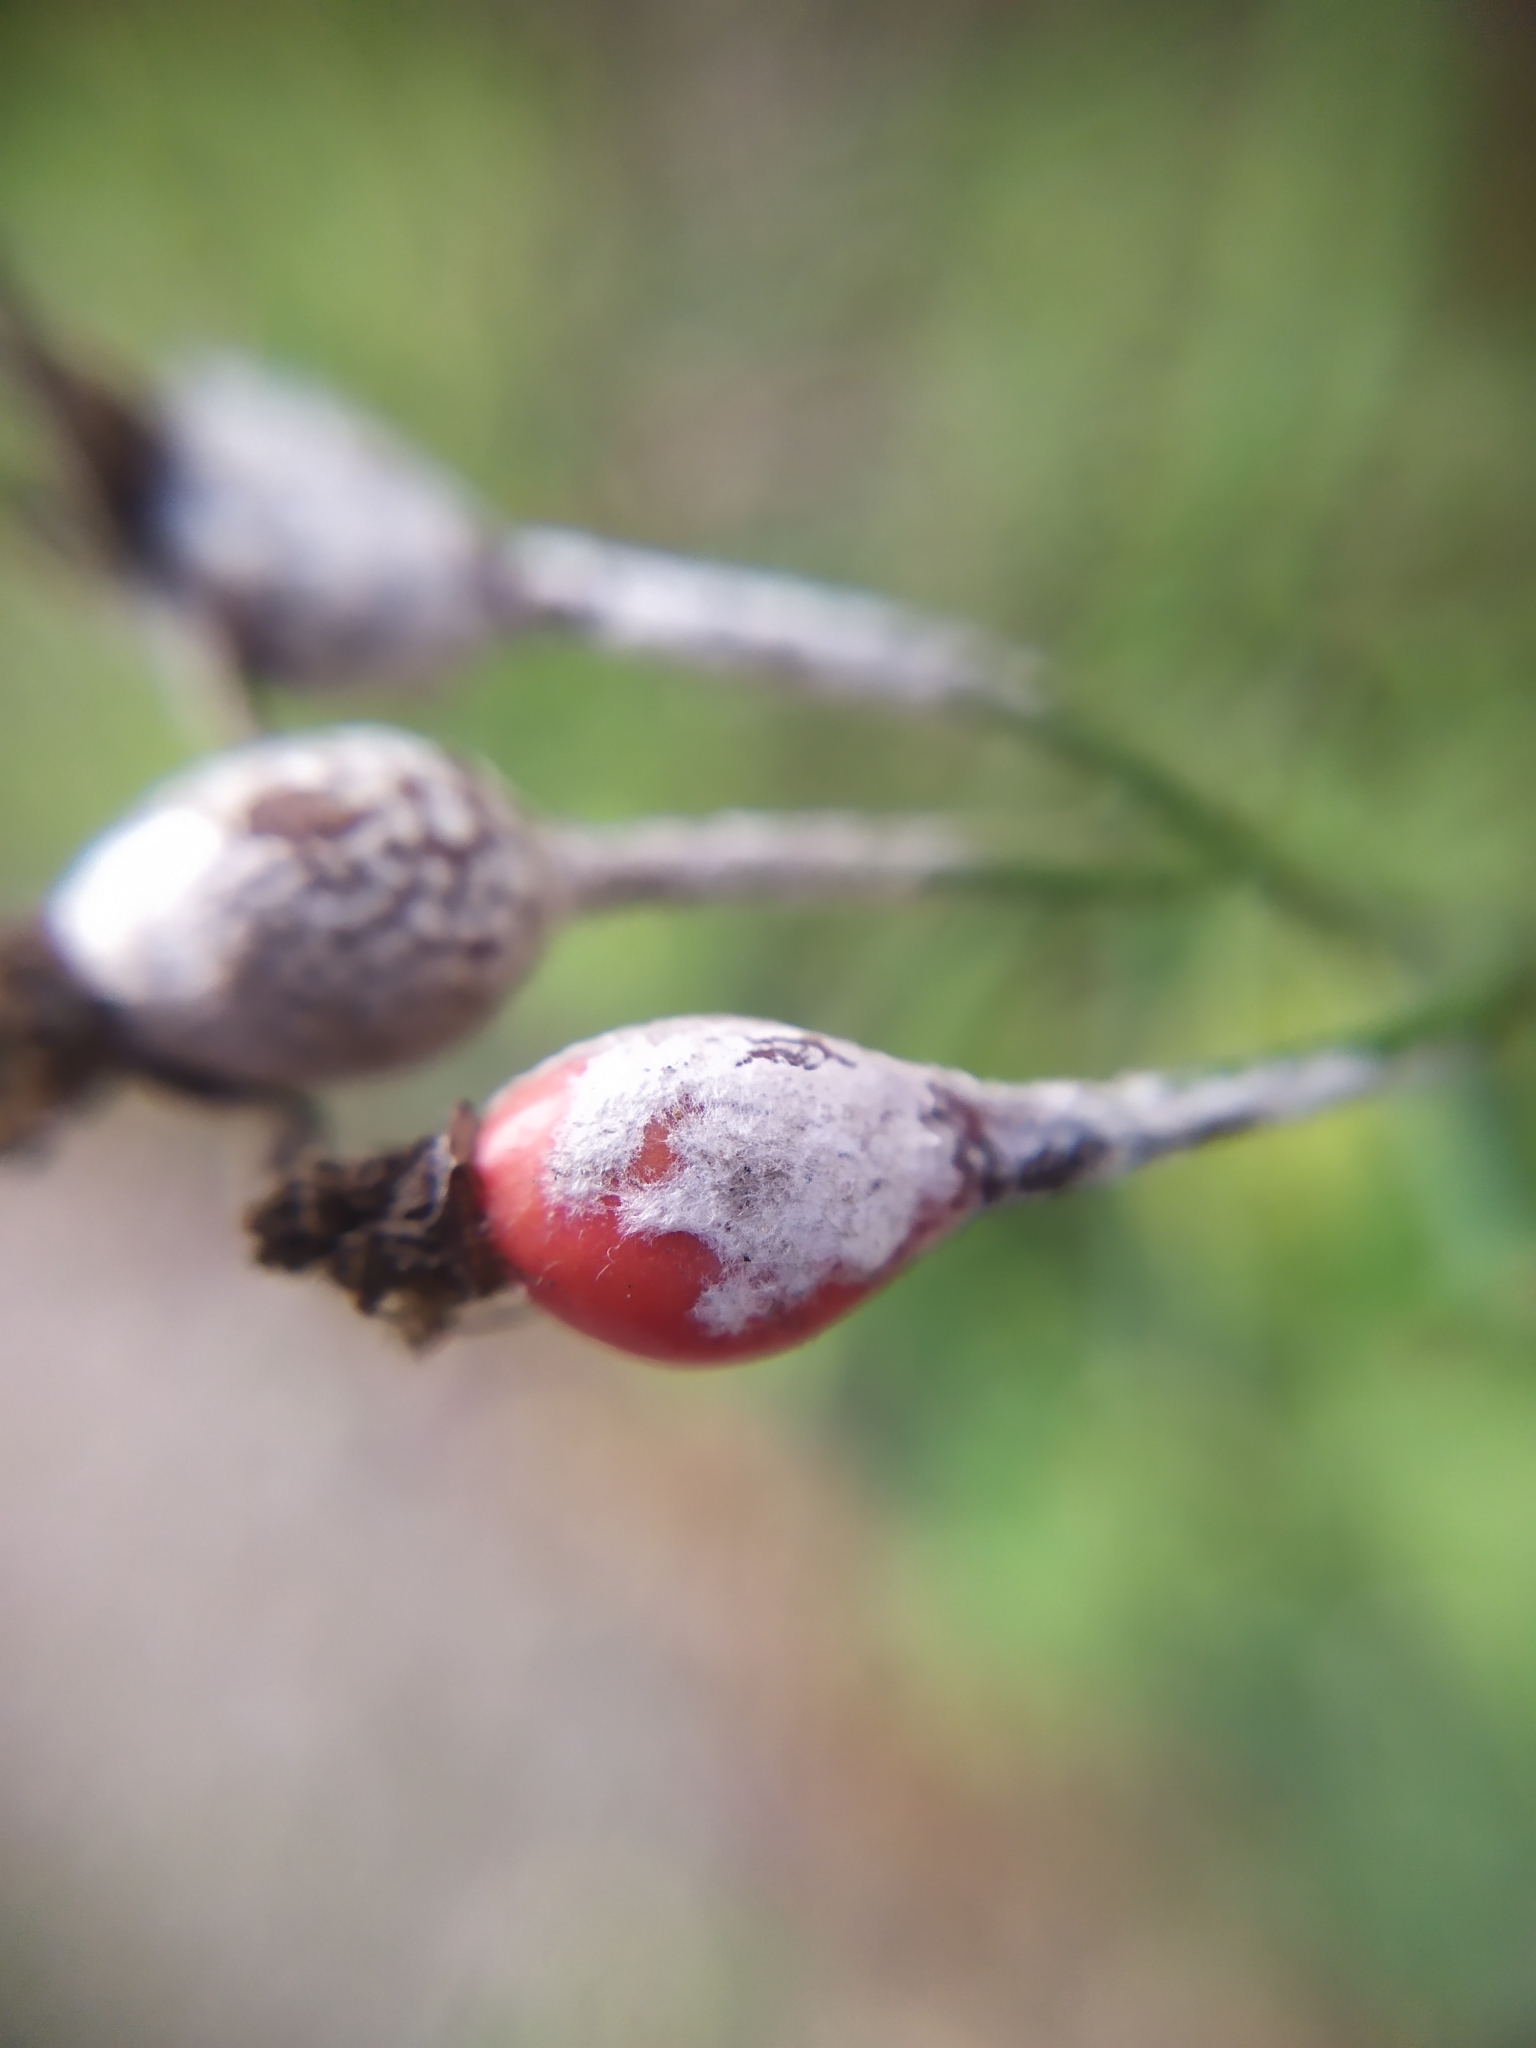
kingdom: Fungi
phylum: Ascomycota
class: Leotiomycetes
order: Helotiales
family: Erysiphaceae
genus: Podosphaera
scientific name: Podosphaera pannosa
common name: Rose mildew
